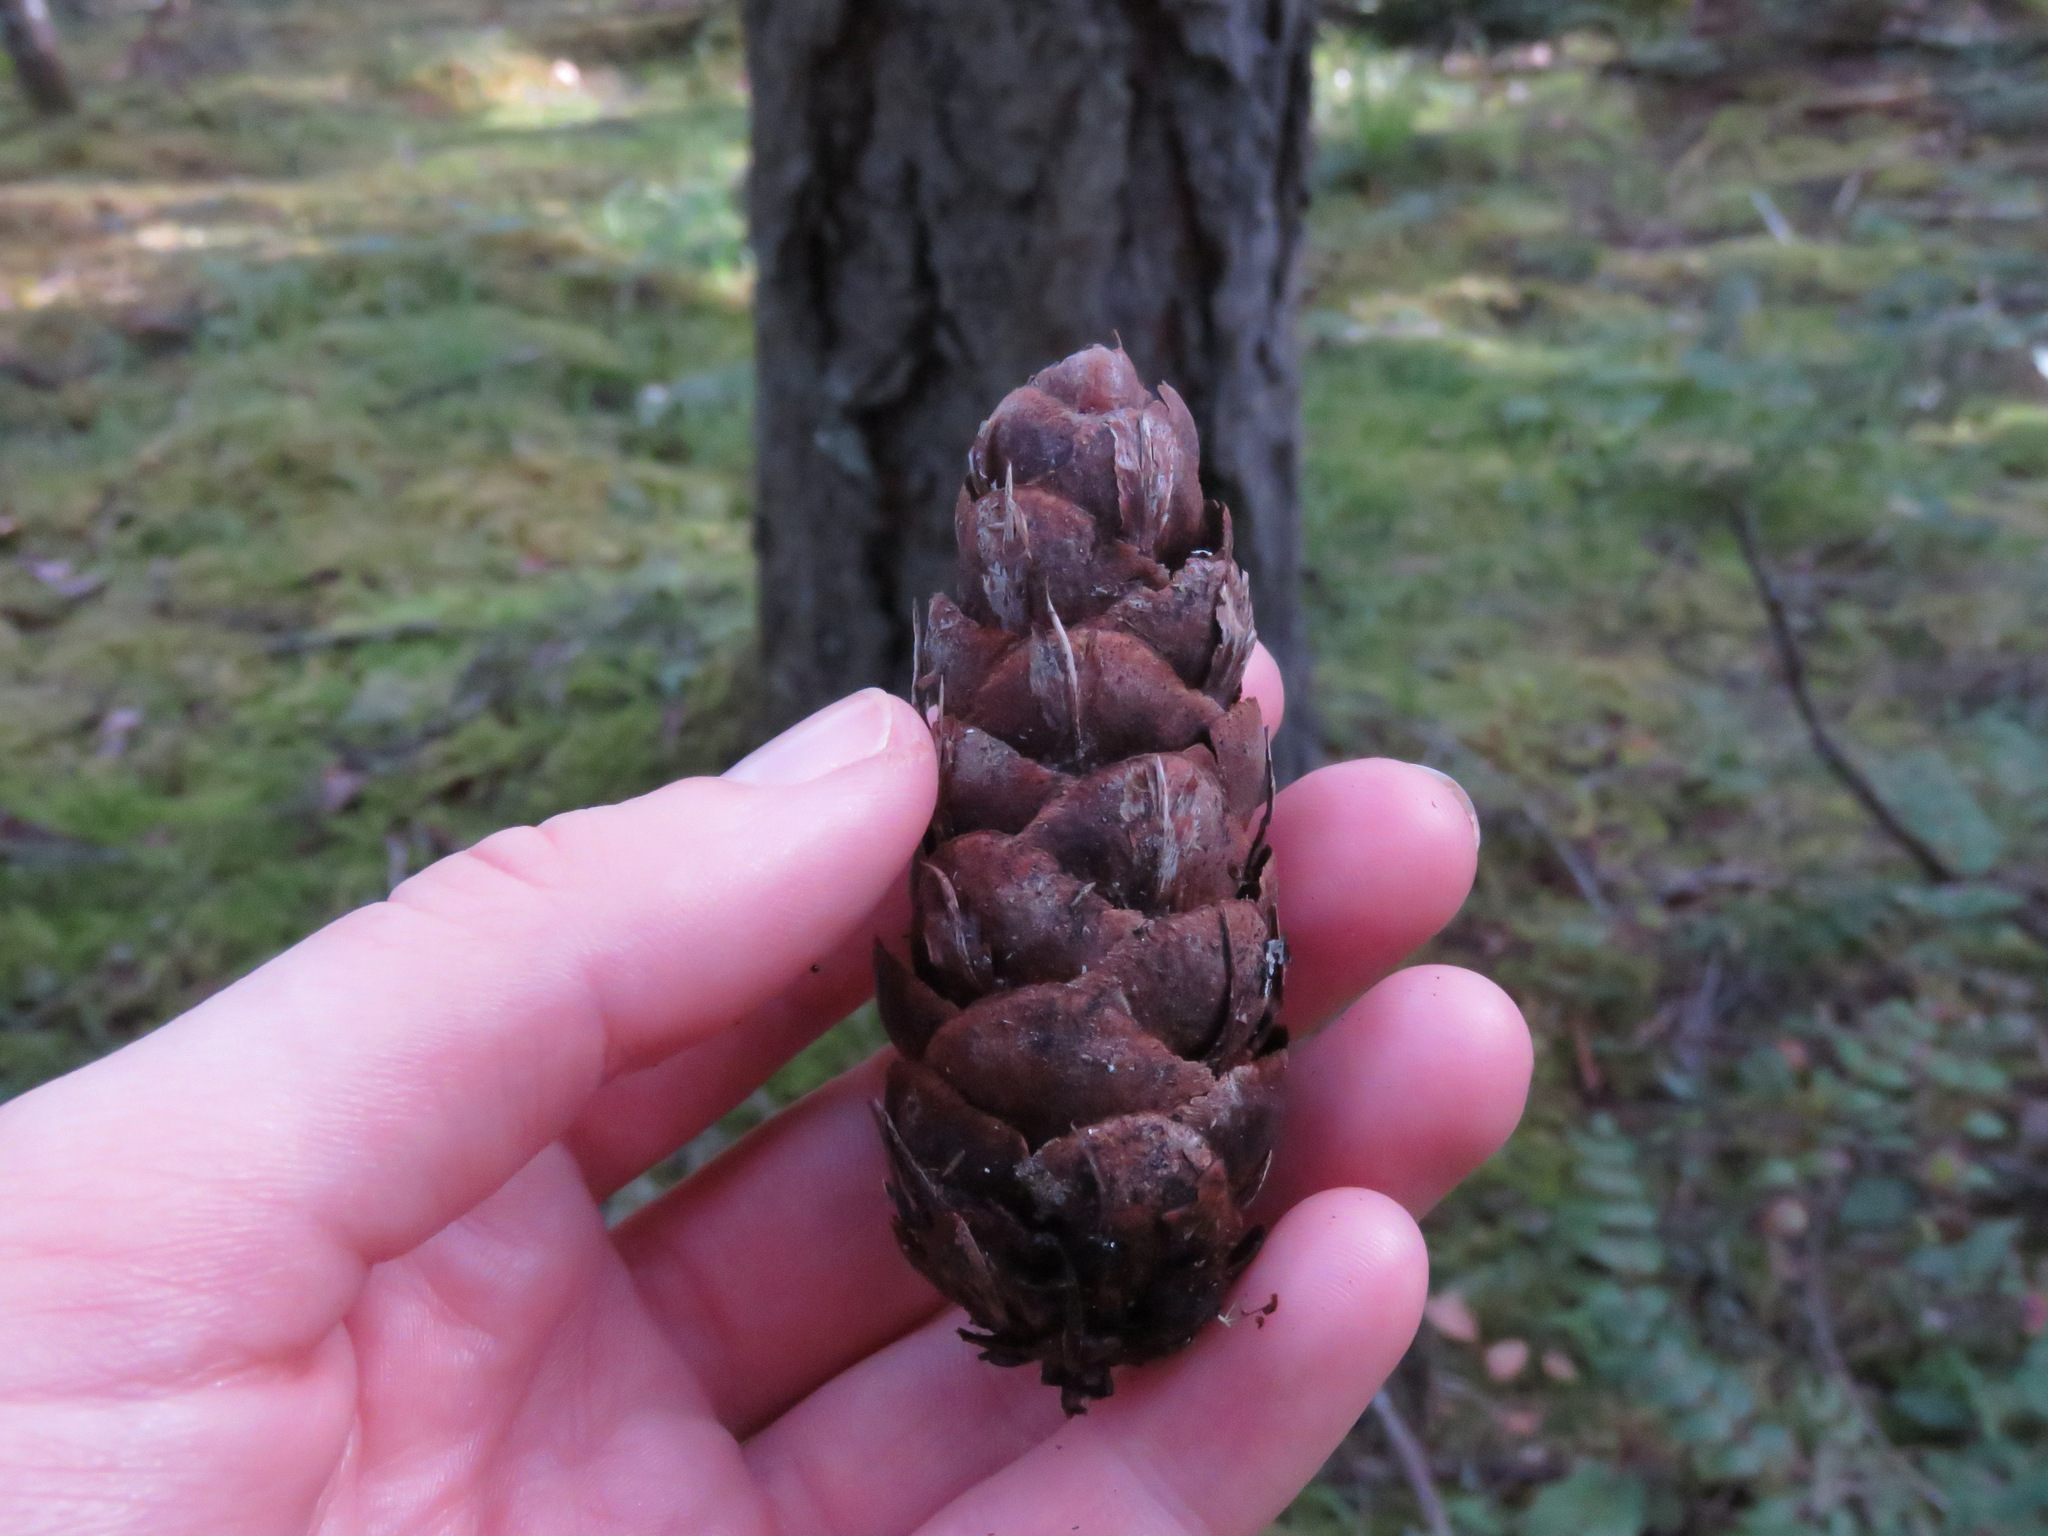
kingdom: Plantae
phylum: Tracheophyta
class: Pinopsida
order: Pinales
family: Pinaceae
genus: Pseudotsuga
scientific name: Pseudotsuga menziesii
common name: Douglas fir
